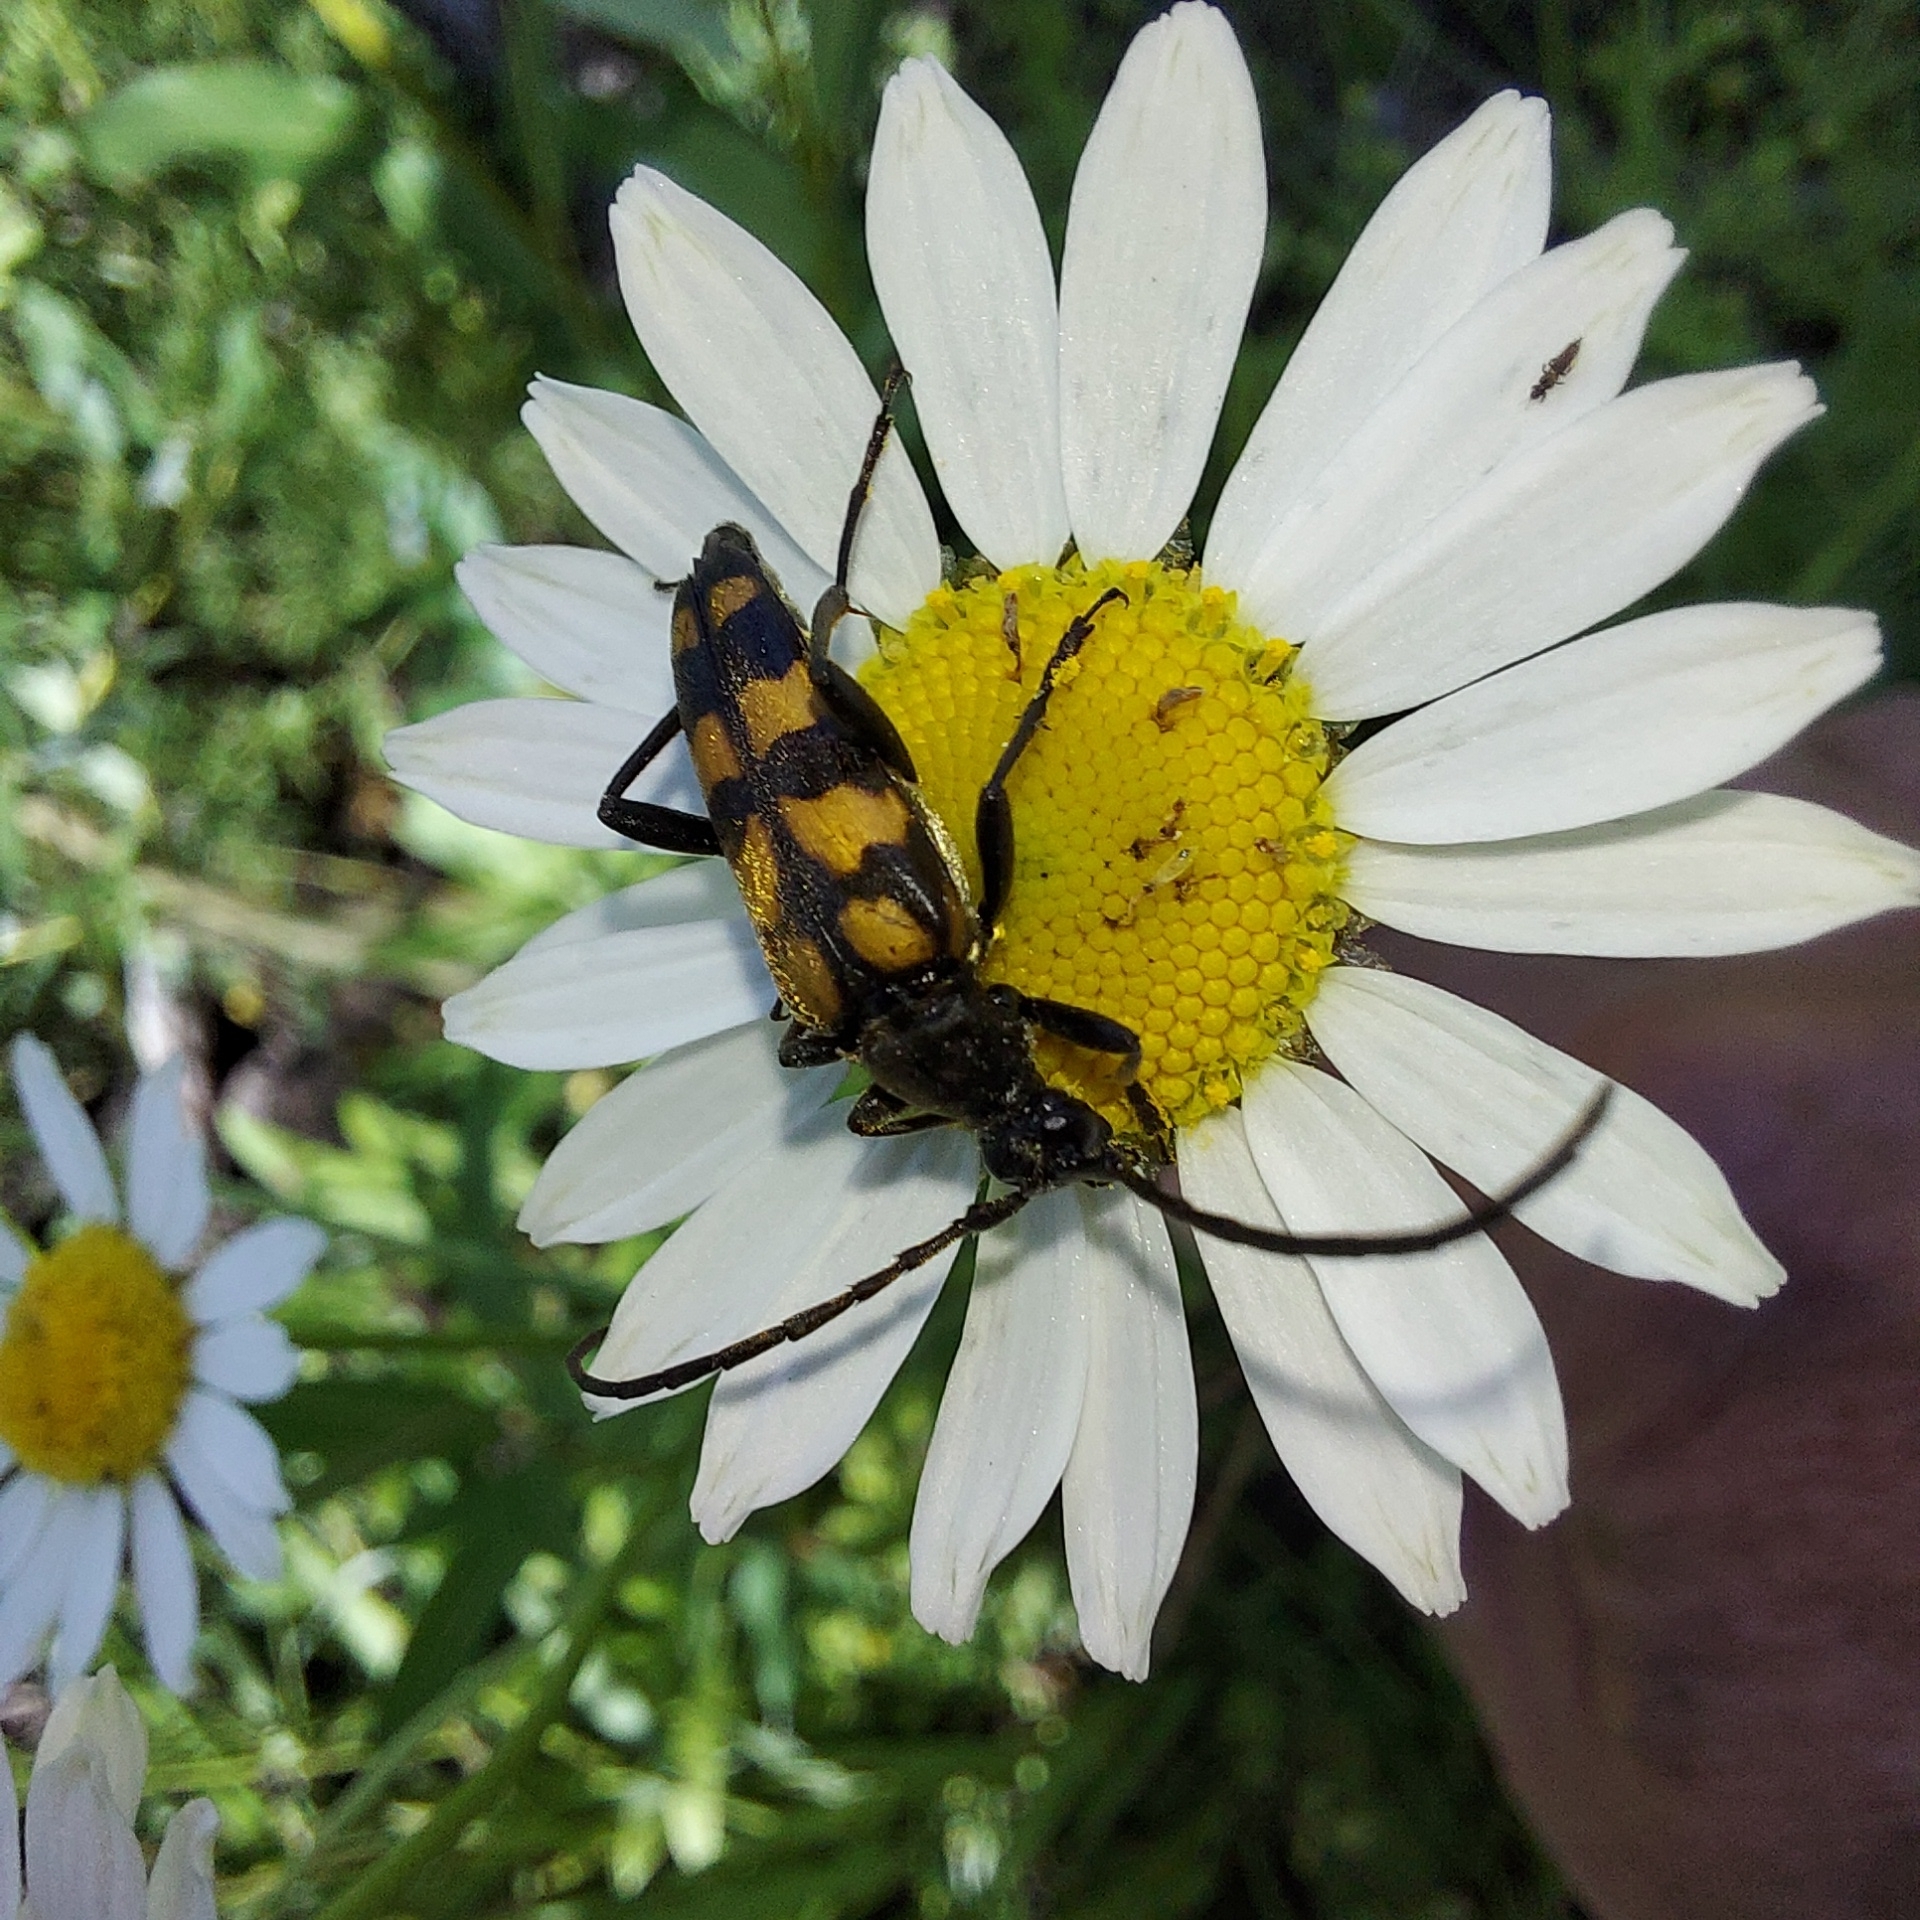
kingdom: Animalia
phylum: Arthropoda
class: Insecta
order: Coleoptera
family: Cerambycidae
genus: Leptura
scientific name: Leptura quadrifasciata
